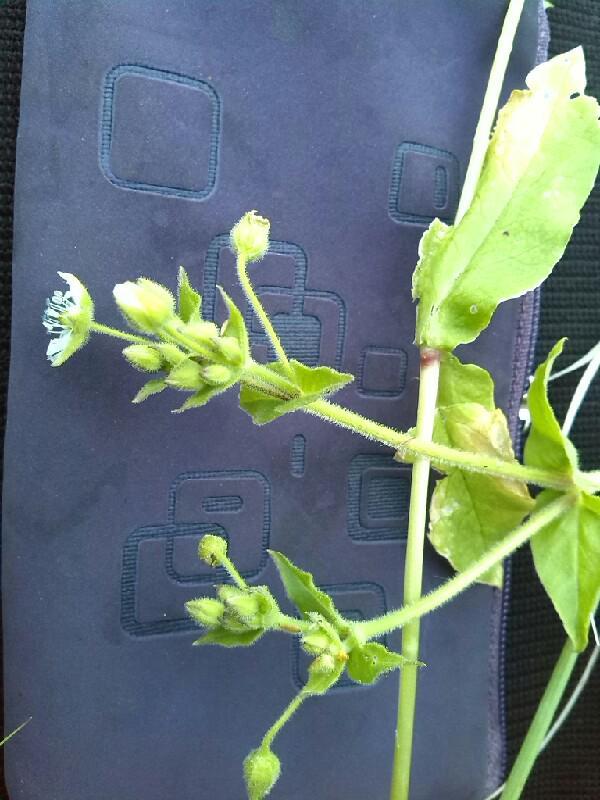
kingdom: Plantae
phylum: Tracheophyta
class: Magnoliopsida
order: Caryophyllales
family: Caryophyllaceae
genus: Stellaria
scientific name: Stellaria aquatica
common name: Water chickweed
